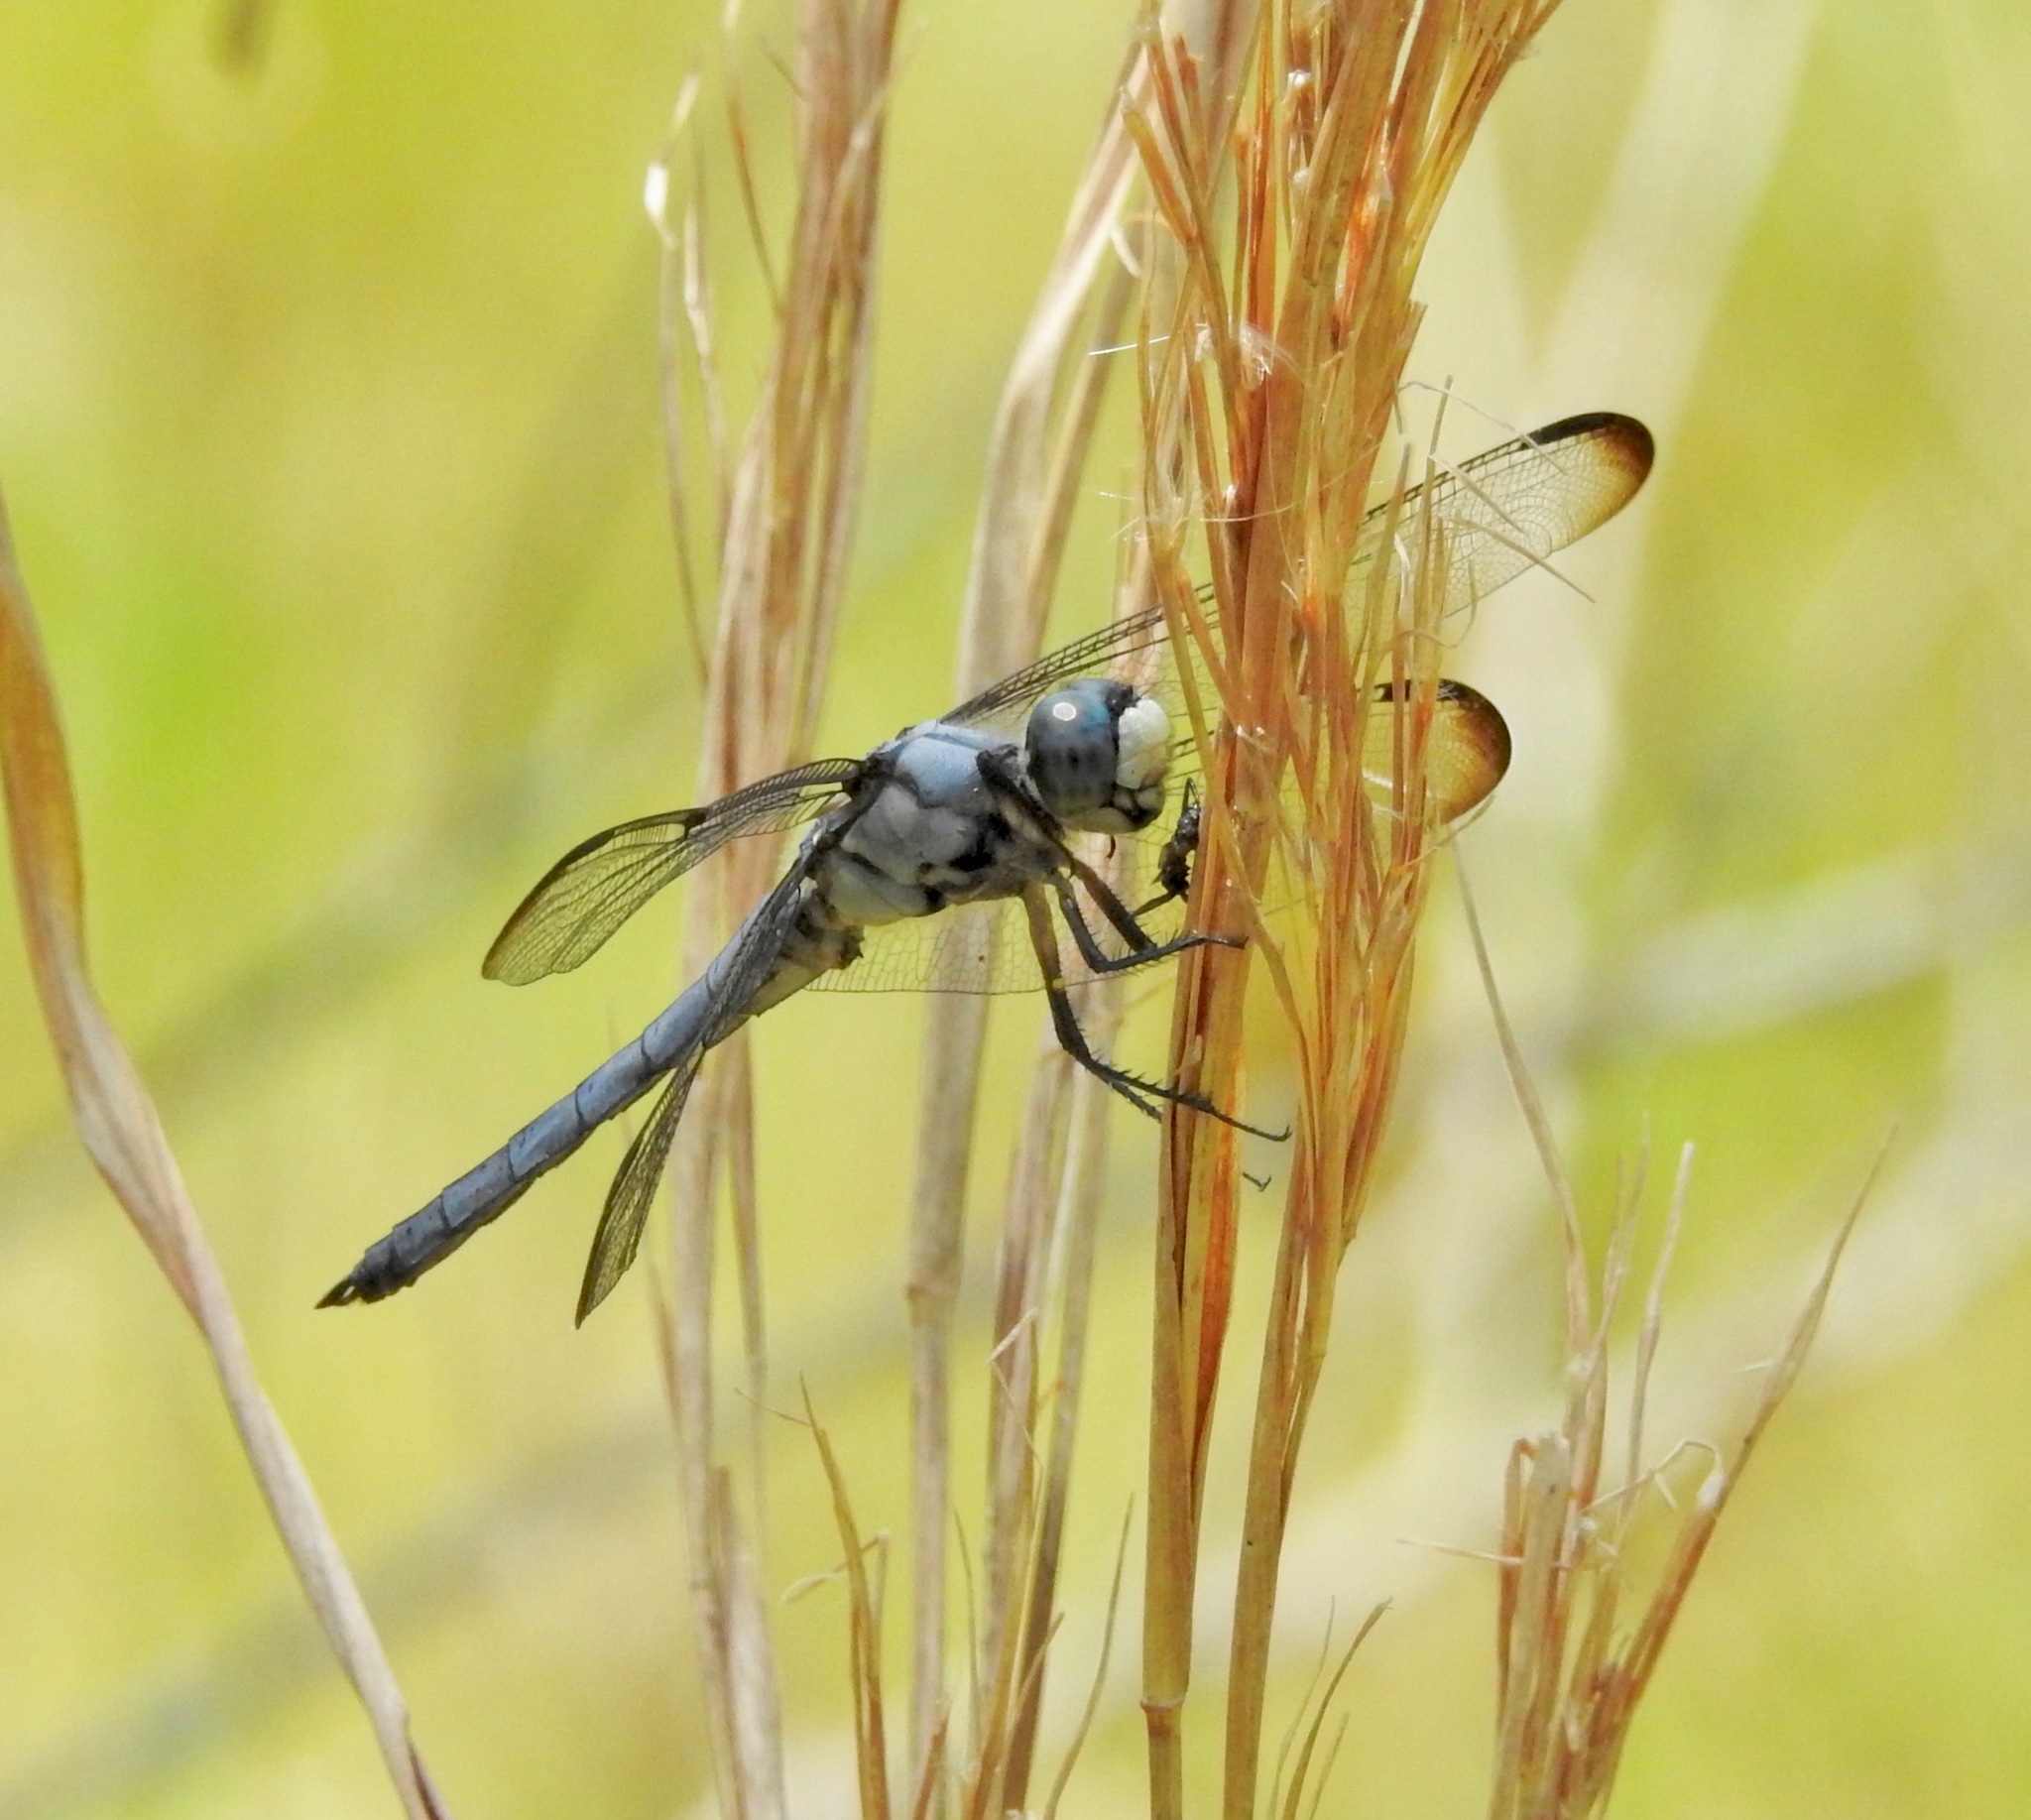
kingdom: Animalia
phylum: Arthropoda
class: Insecta
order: Odonata
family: Libellulidae
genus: Libellula
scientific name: Libellula vibrans
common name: Great blue skimmer
